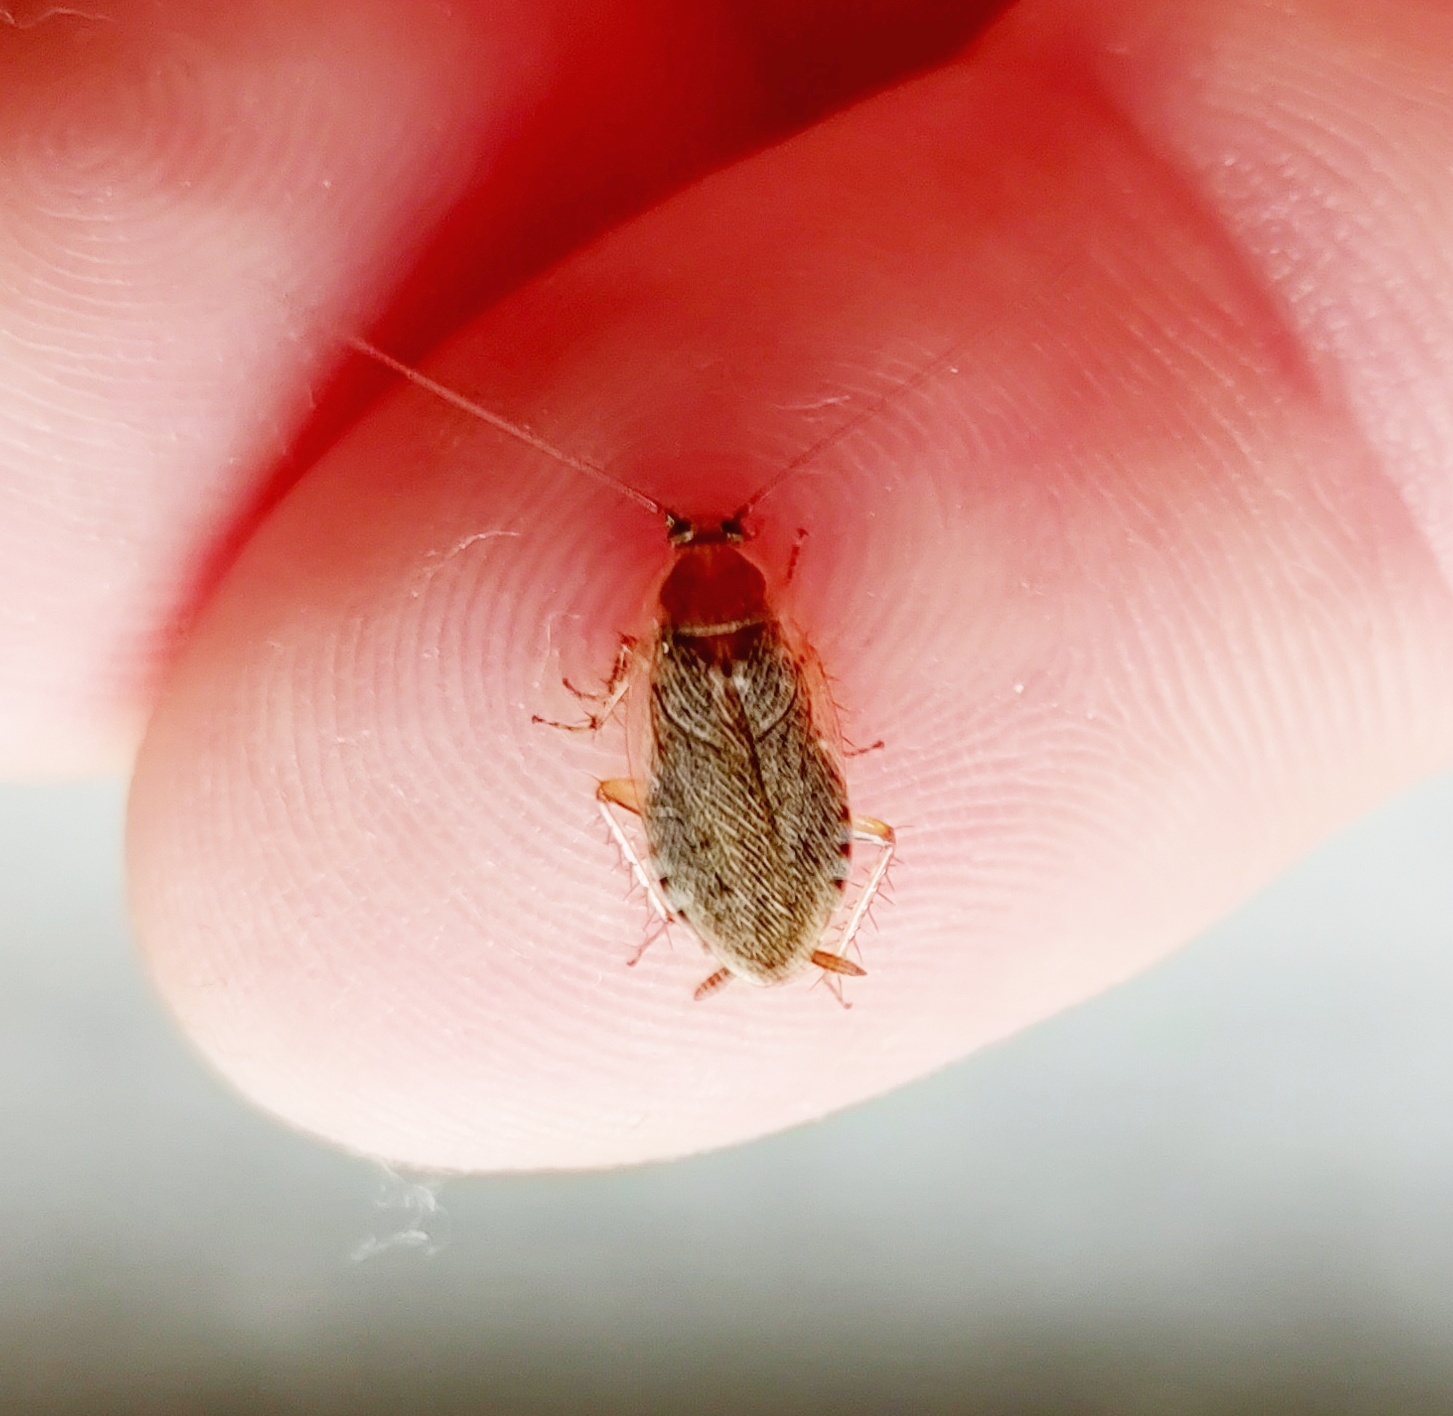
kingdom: Animalia
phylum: Arthropoda
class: Insecta
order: Blattodea
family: Ectobiidae
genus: Ectobius
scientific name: Ectobius vittiventris
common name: Garden cockroach
